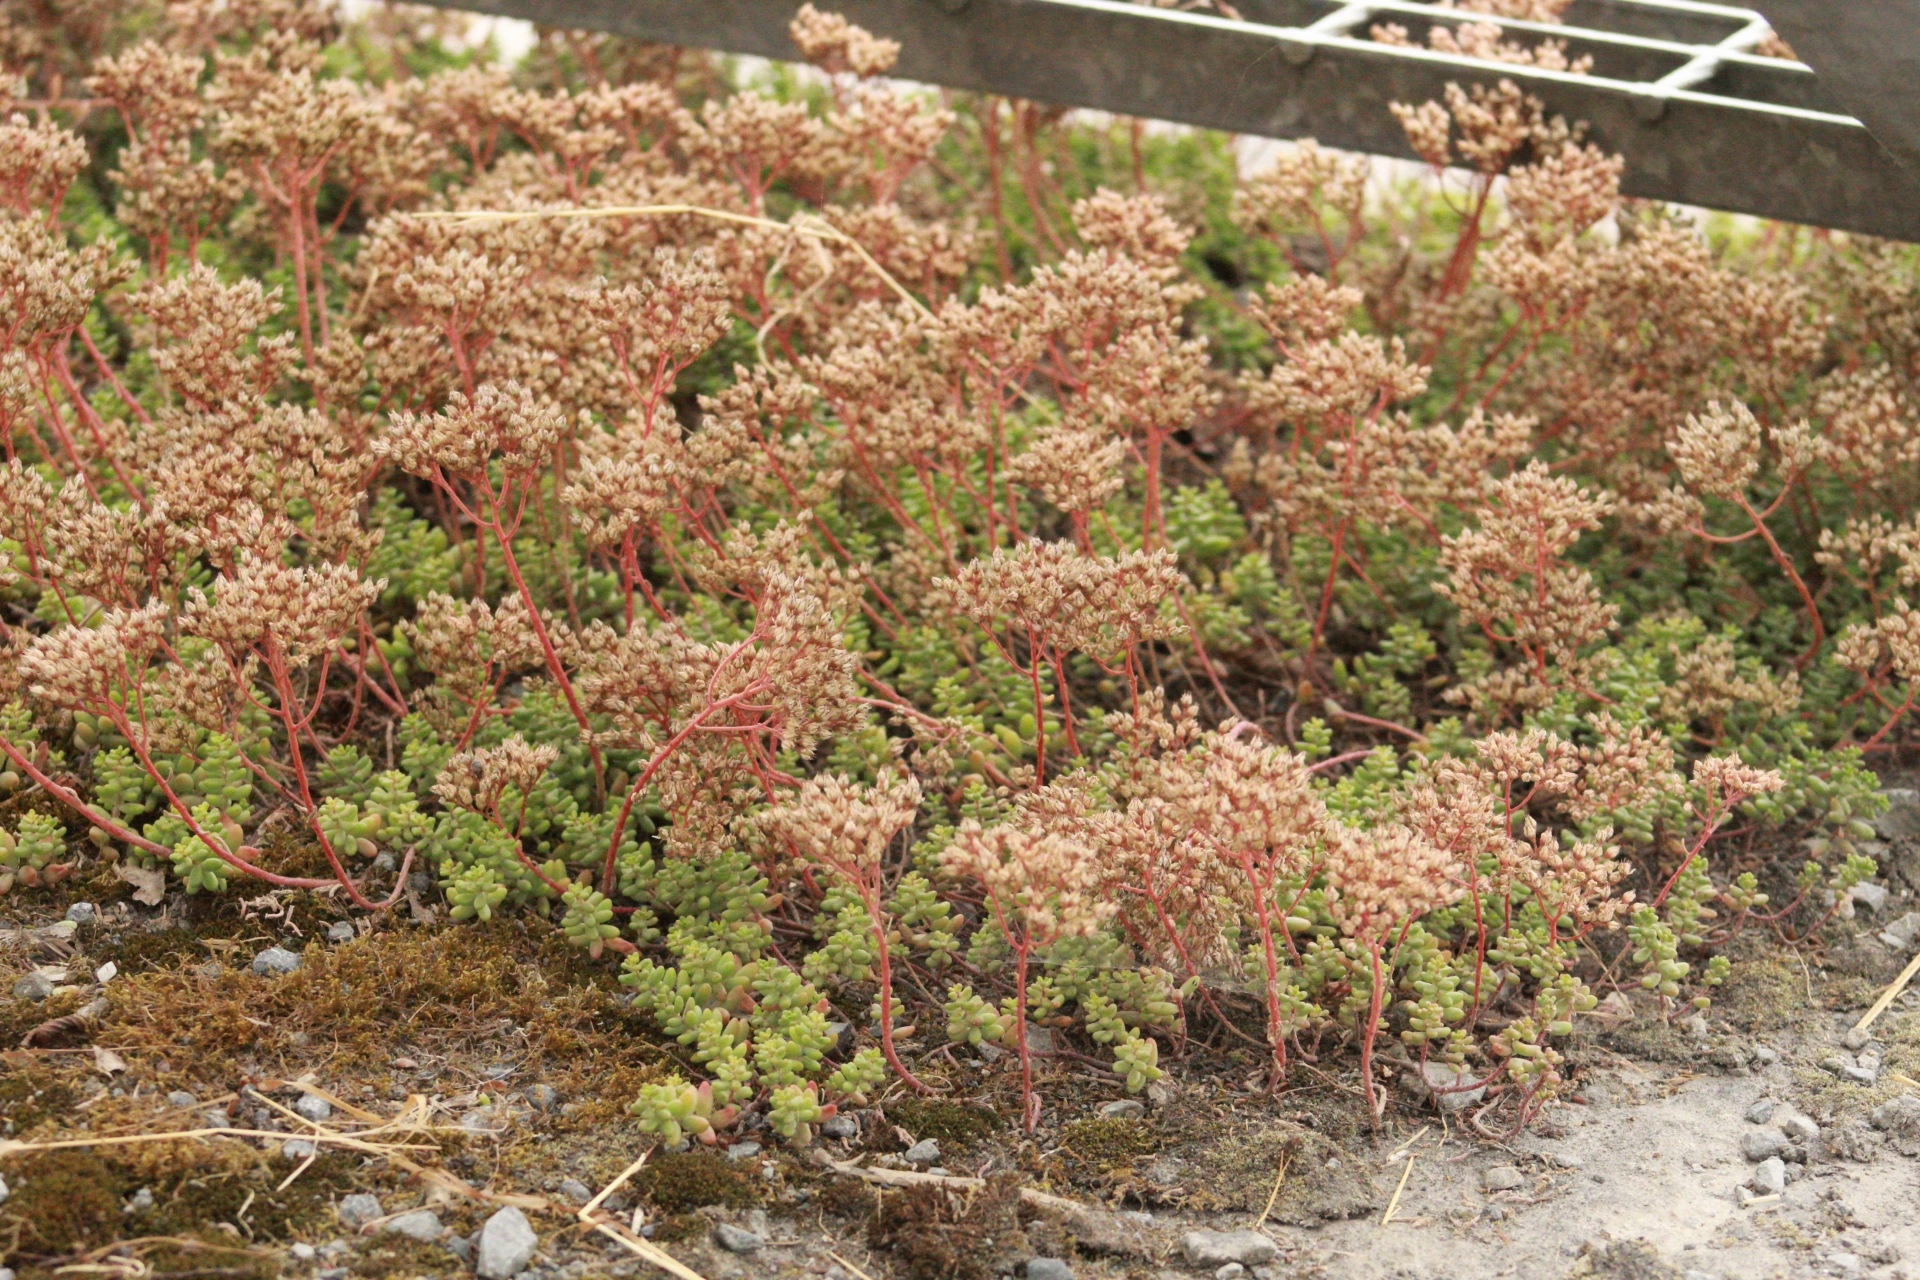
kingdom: Plantae
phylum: Tracheophyta
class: Magnoliopsida
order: Saxifragales
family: Crassulaceae
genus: Sedum
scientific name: Sedum album
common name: White stonecrop
